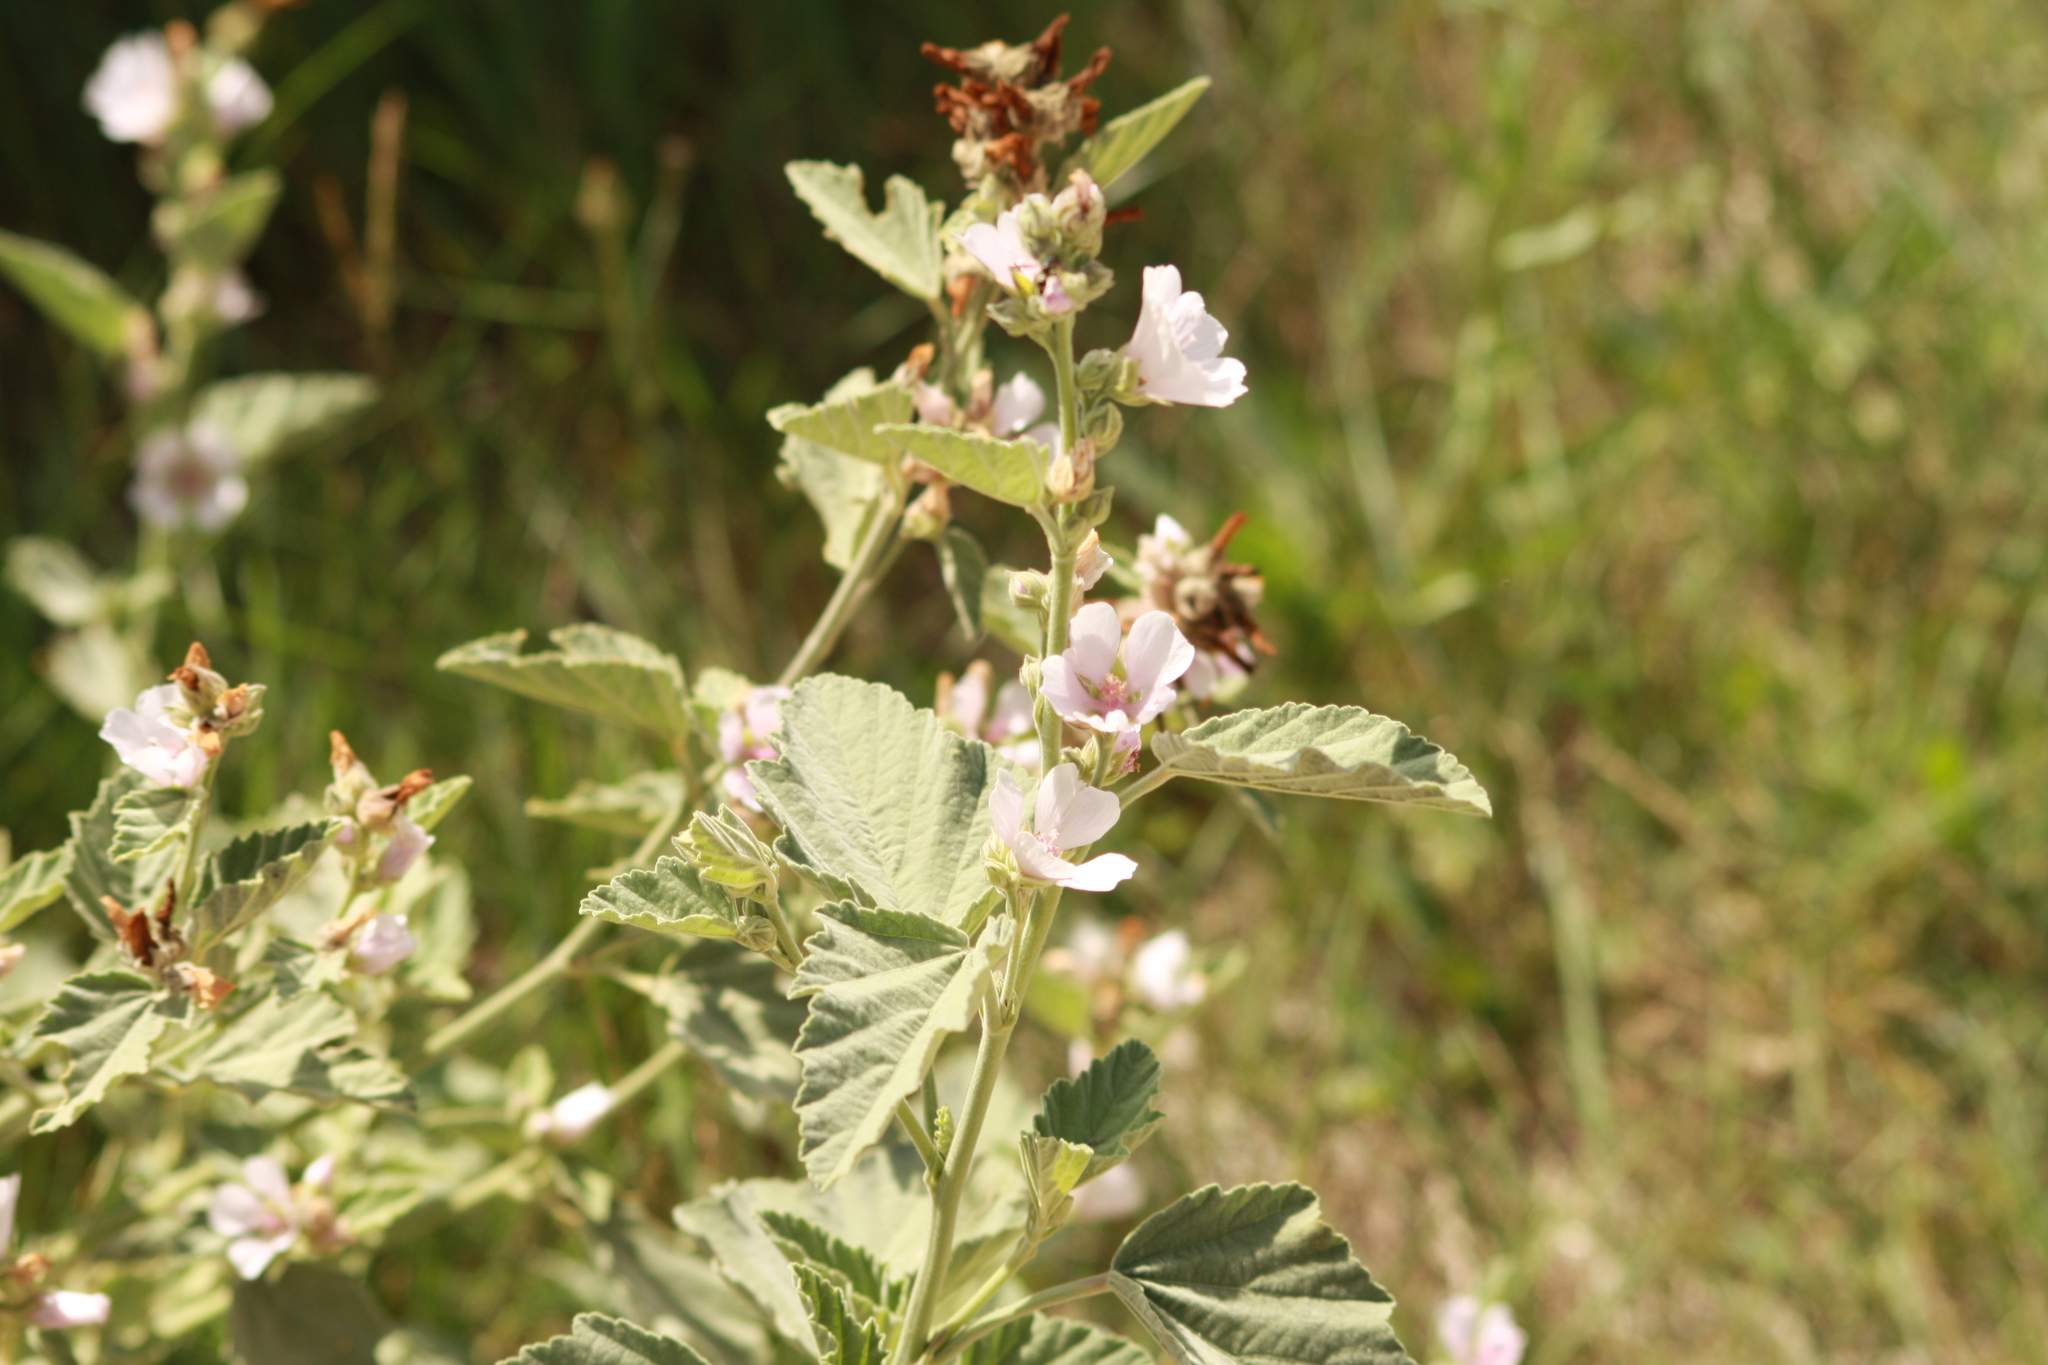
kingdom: Plantae
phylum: Tracheophyta
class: Magnoliopsida
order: Malvales
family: Malvaceae
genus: Althaea
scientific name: Althaea officinalis
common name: Marsh-mallow
